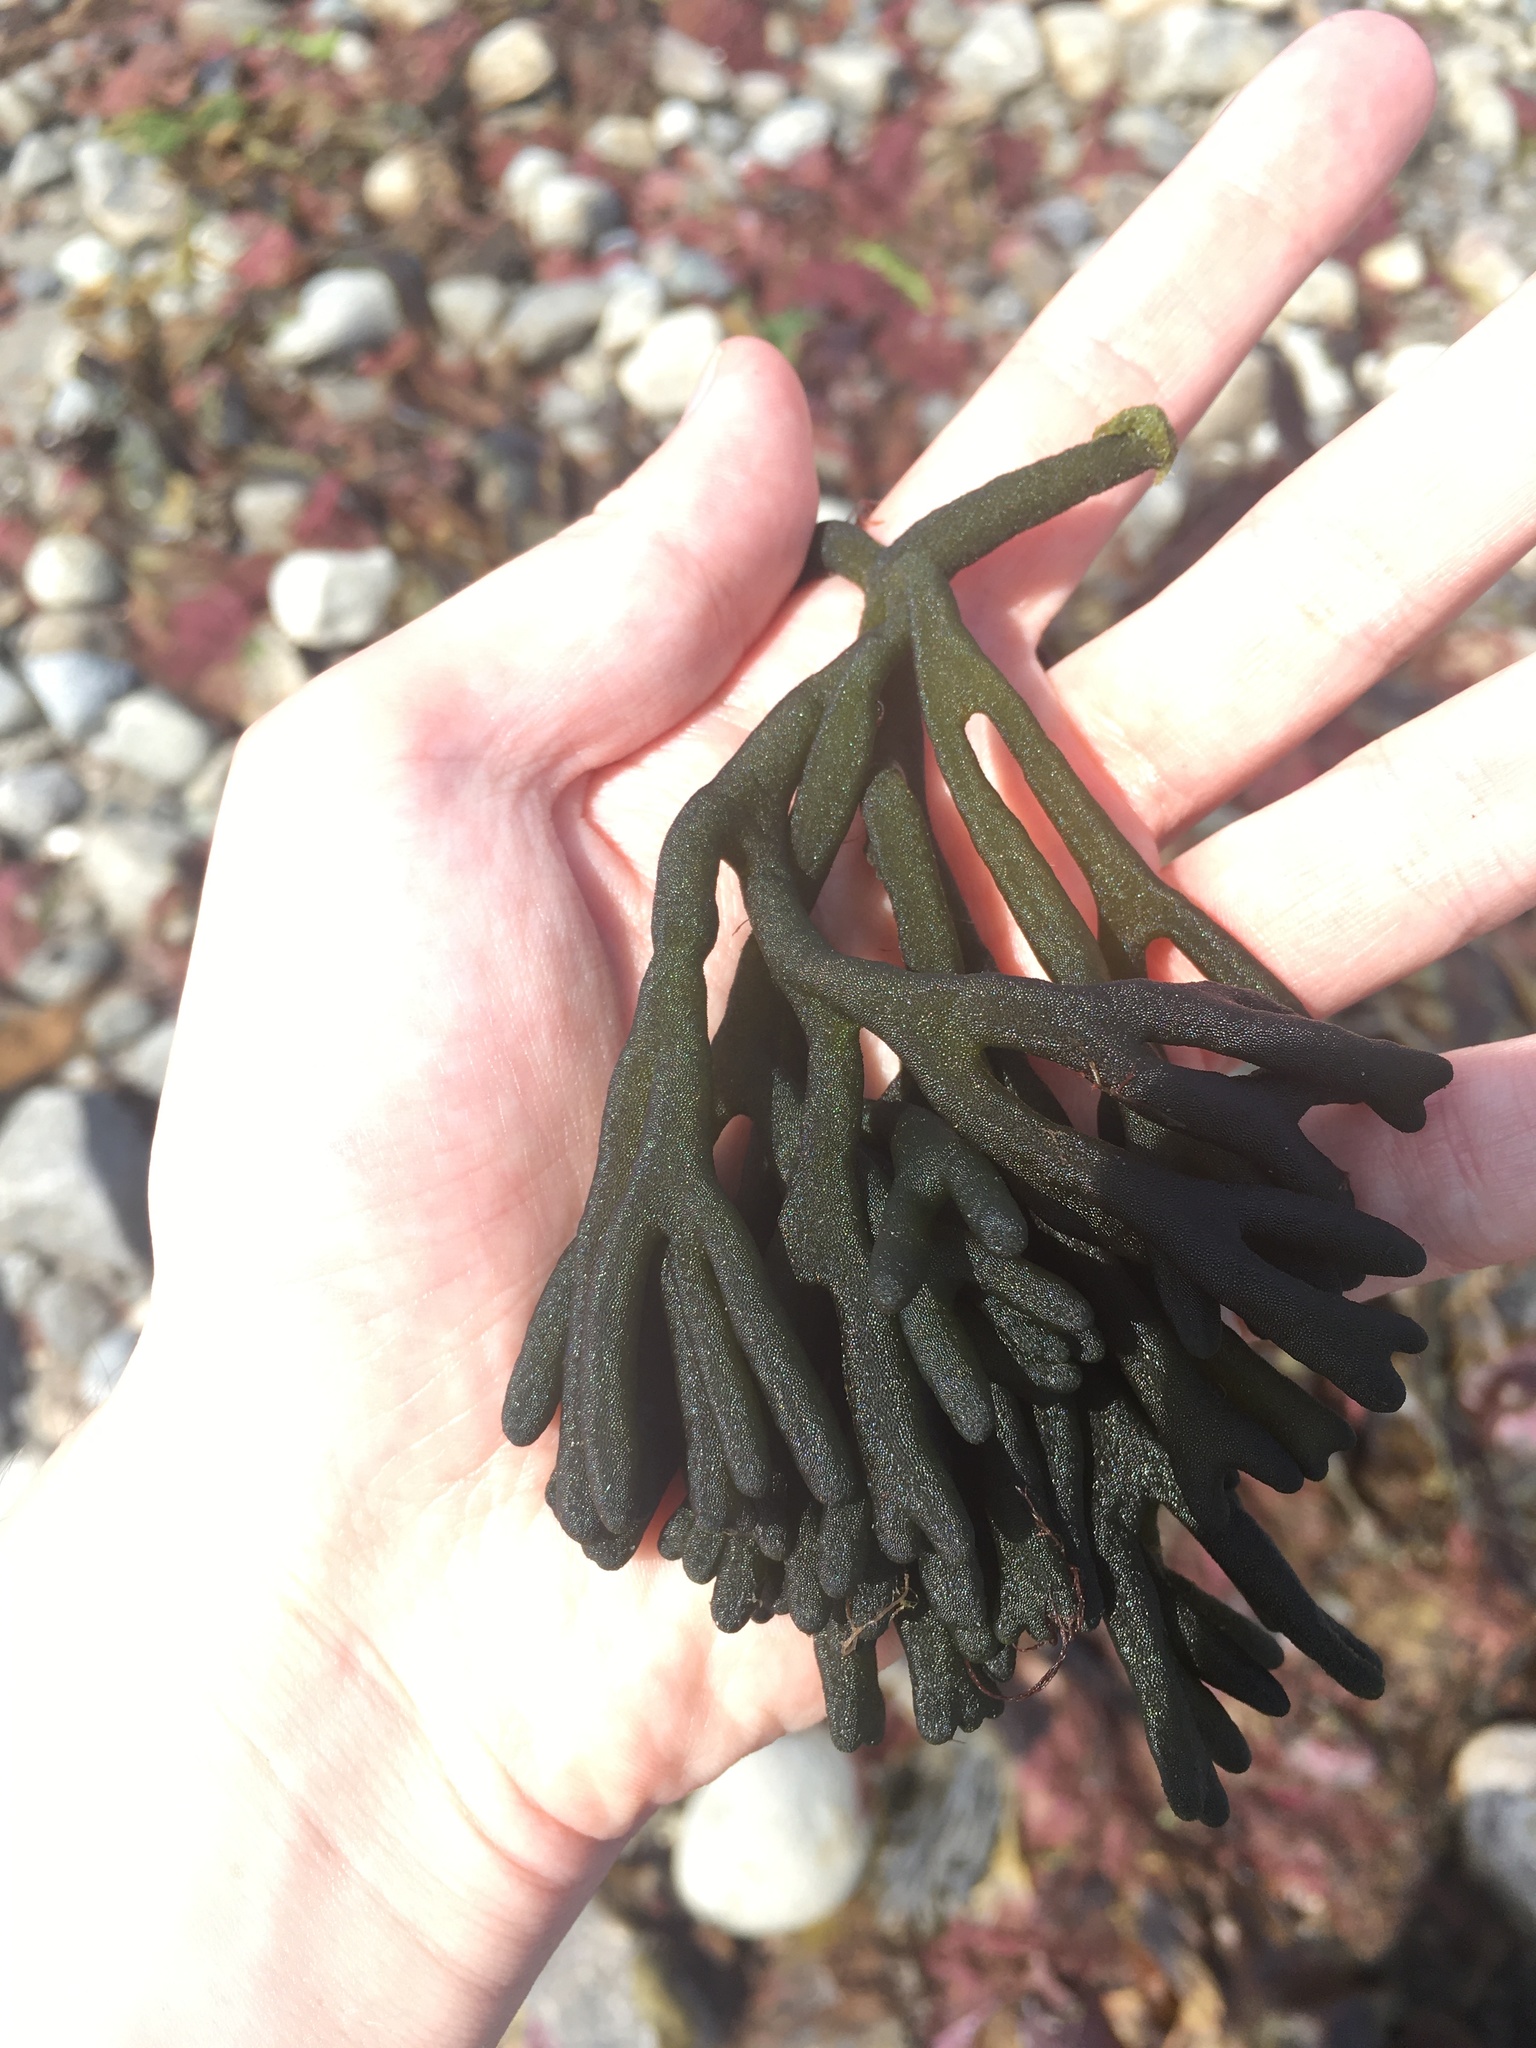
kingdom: Plantae
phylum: Chlorophyta
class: Ulvophyceae
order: Bryopsidales
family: Codiaceae
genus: Codium
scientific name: Codium fragile
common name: Dead man's fingers
